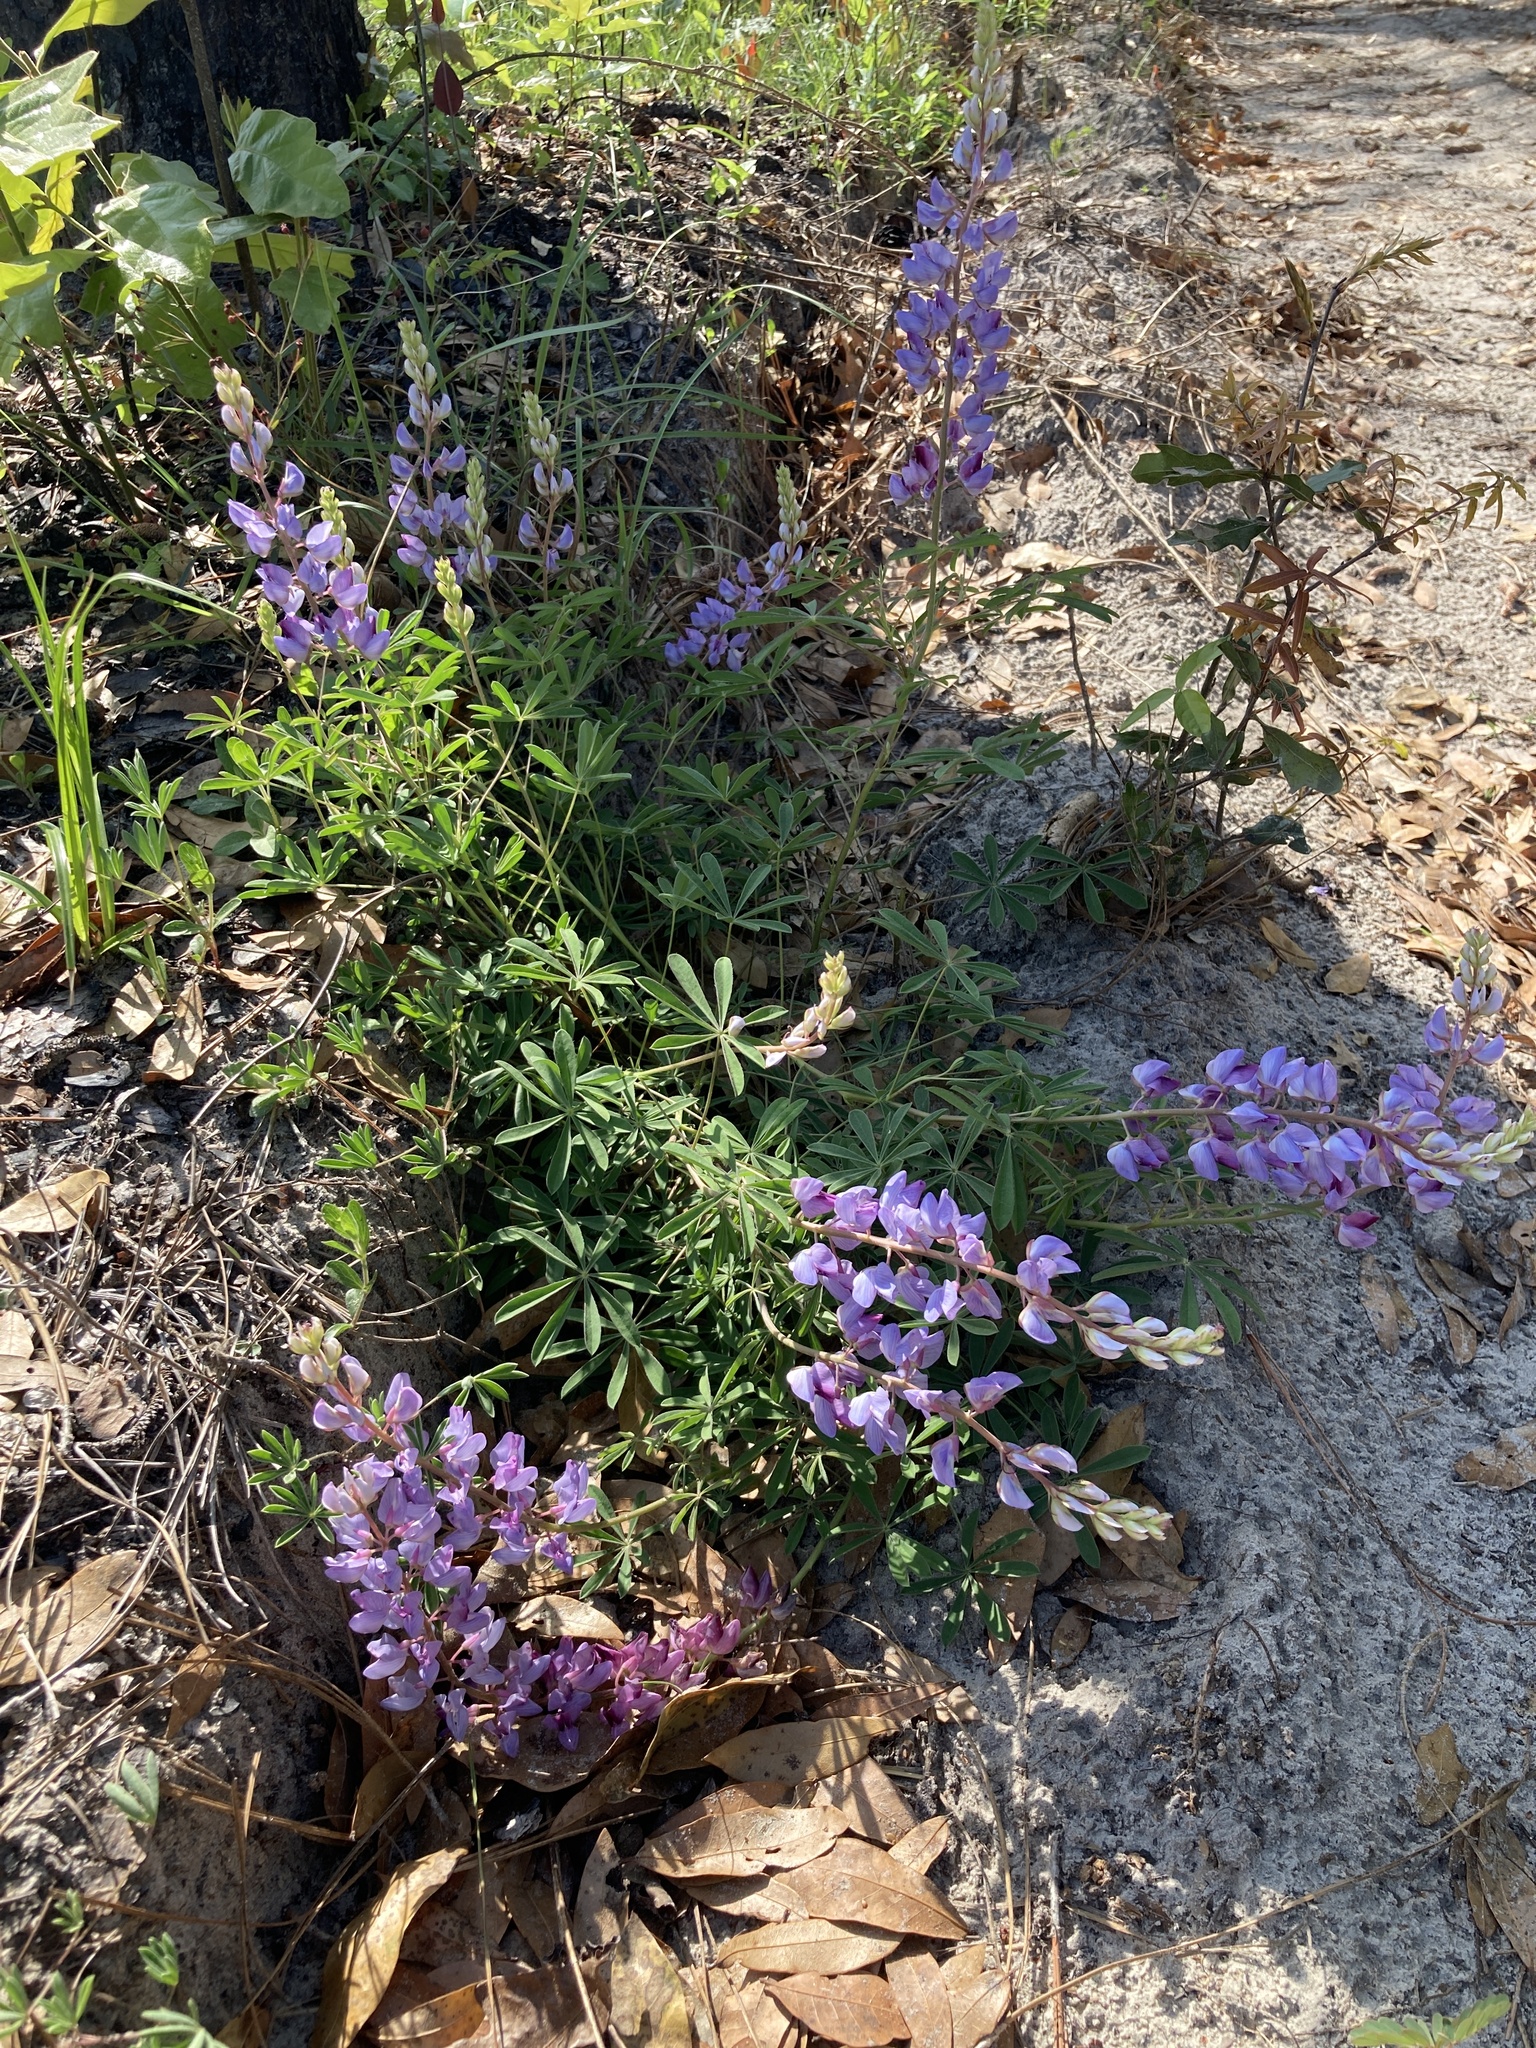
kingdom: Plantae
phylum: Tracheophyta
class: Magnoliopsida
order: Fabales
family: Fabaceae
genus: Lupinus
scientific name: Lupinus perennis
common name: Sundial lupine
